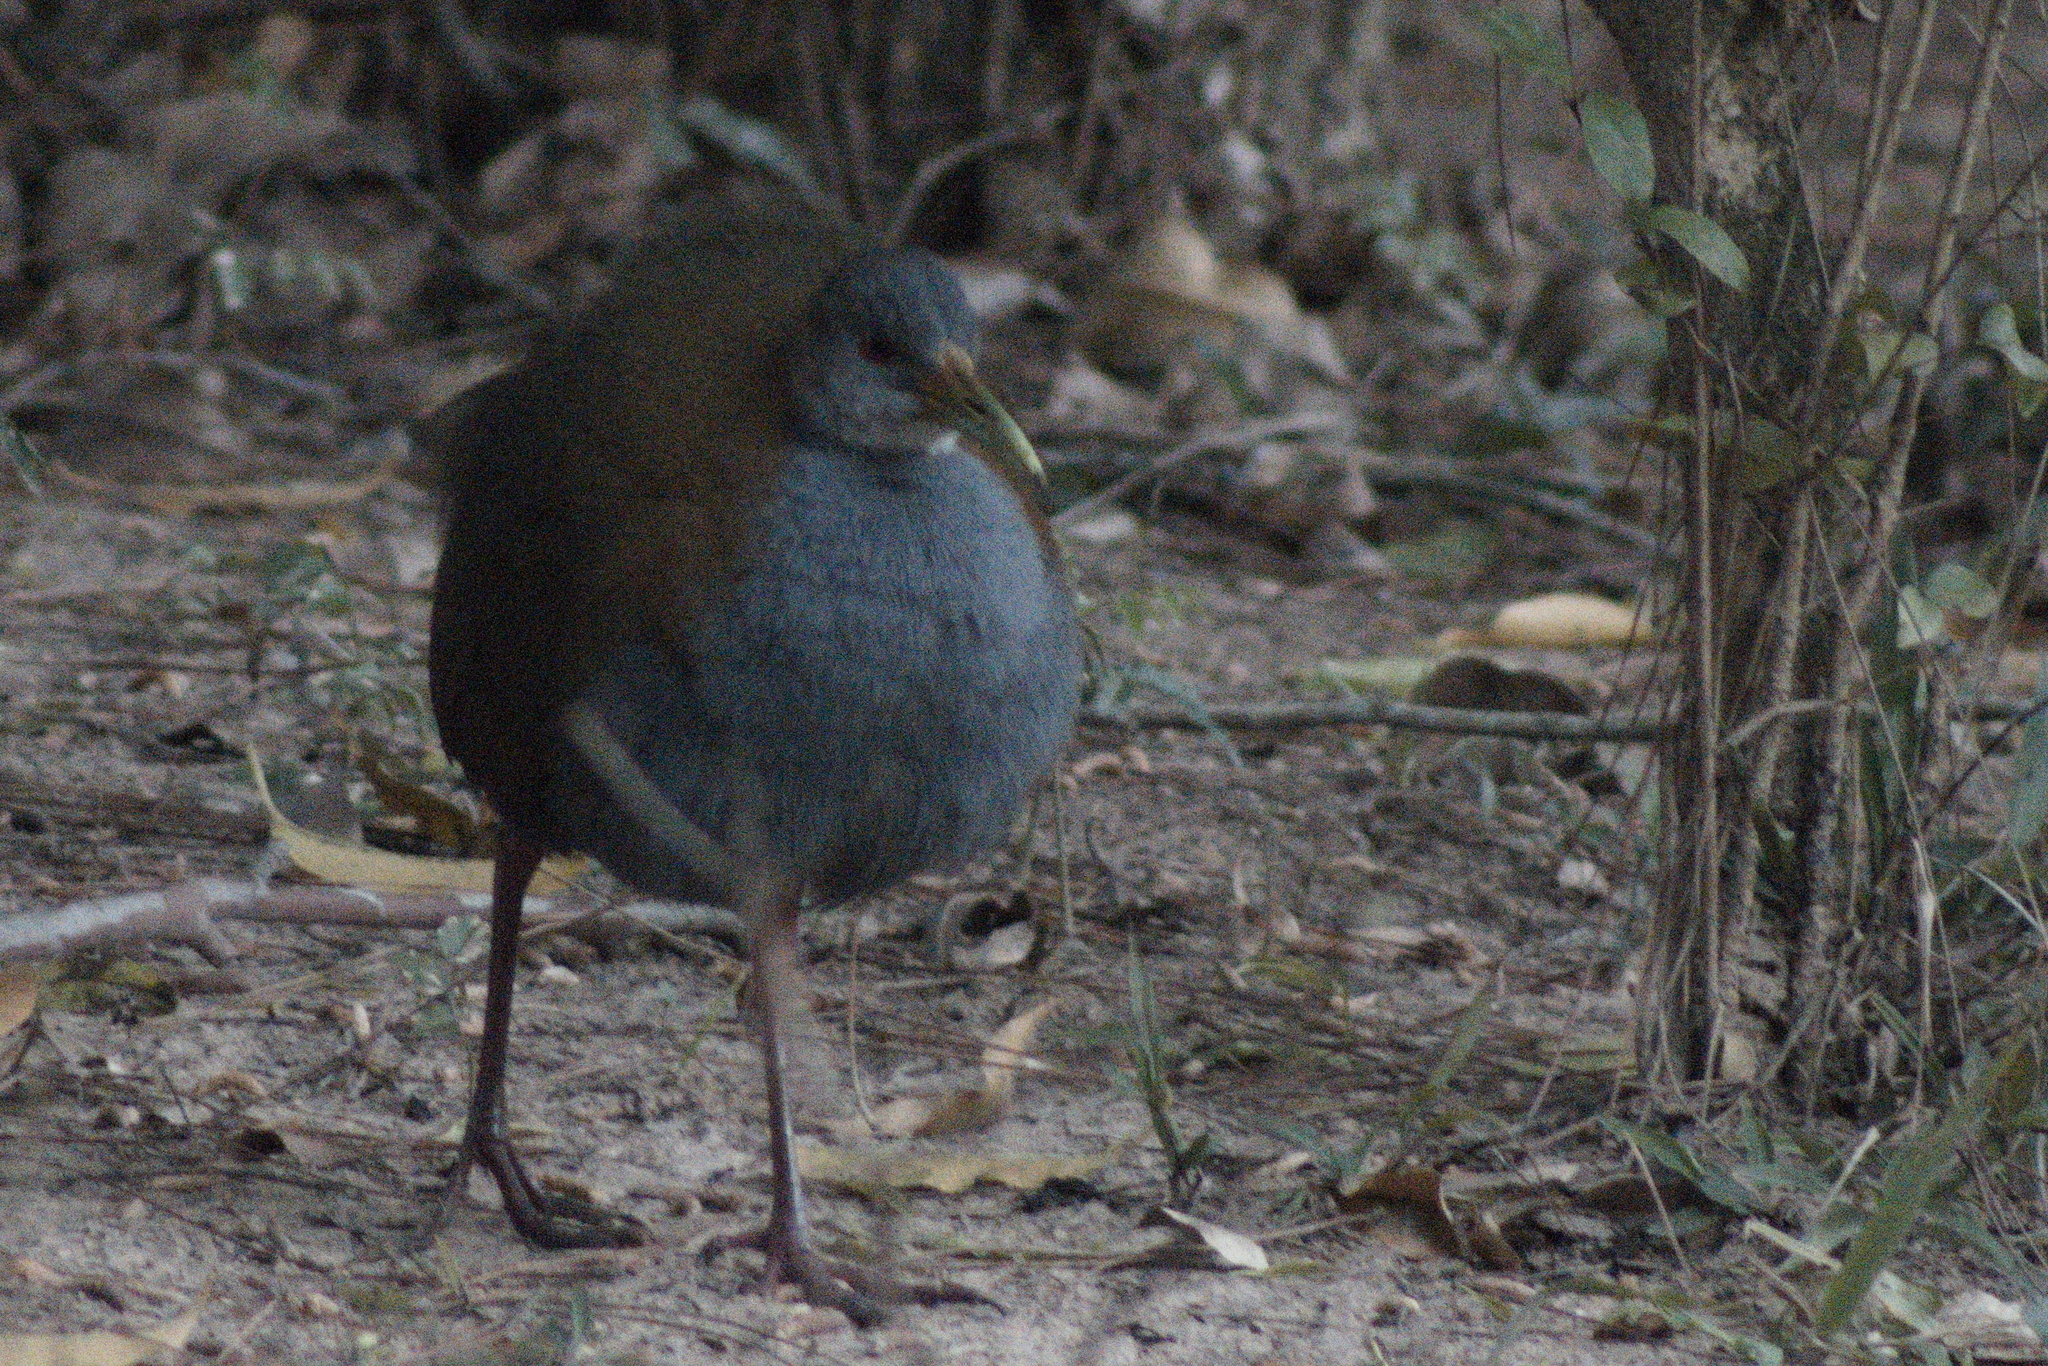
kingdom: Animalia
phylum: Chordata
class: Aves
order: Gruiformes
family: Rallidae
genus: Aramides
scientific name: Aramides saracura
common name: Slaty-breasted wood rail
